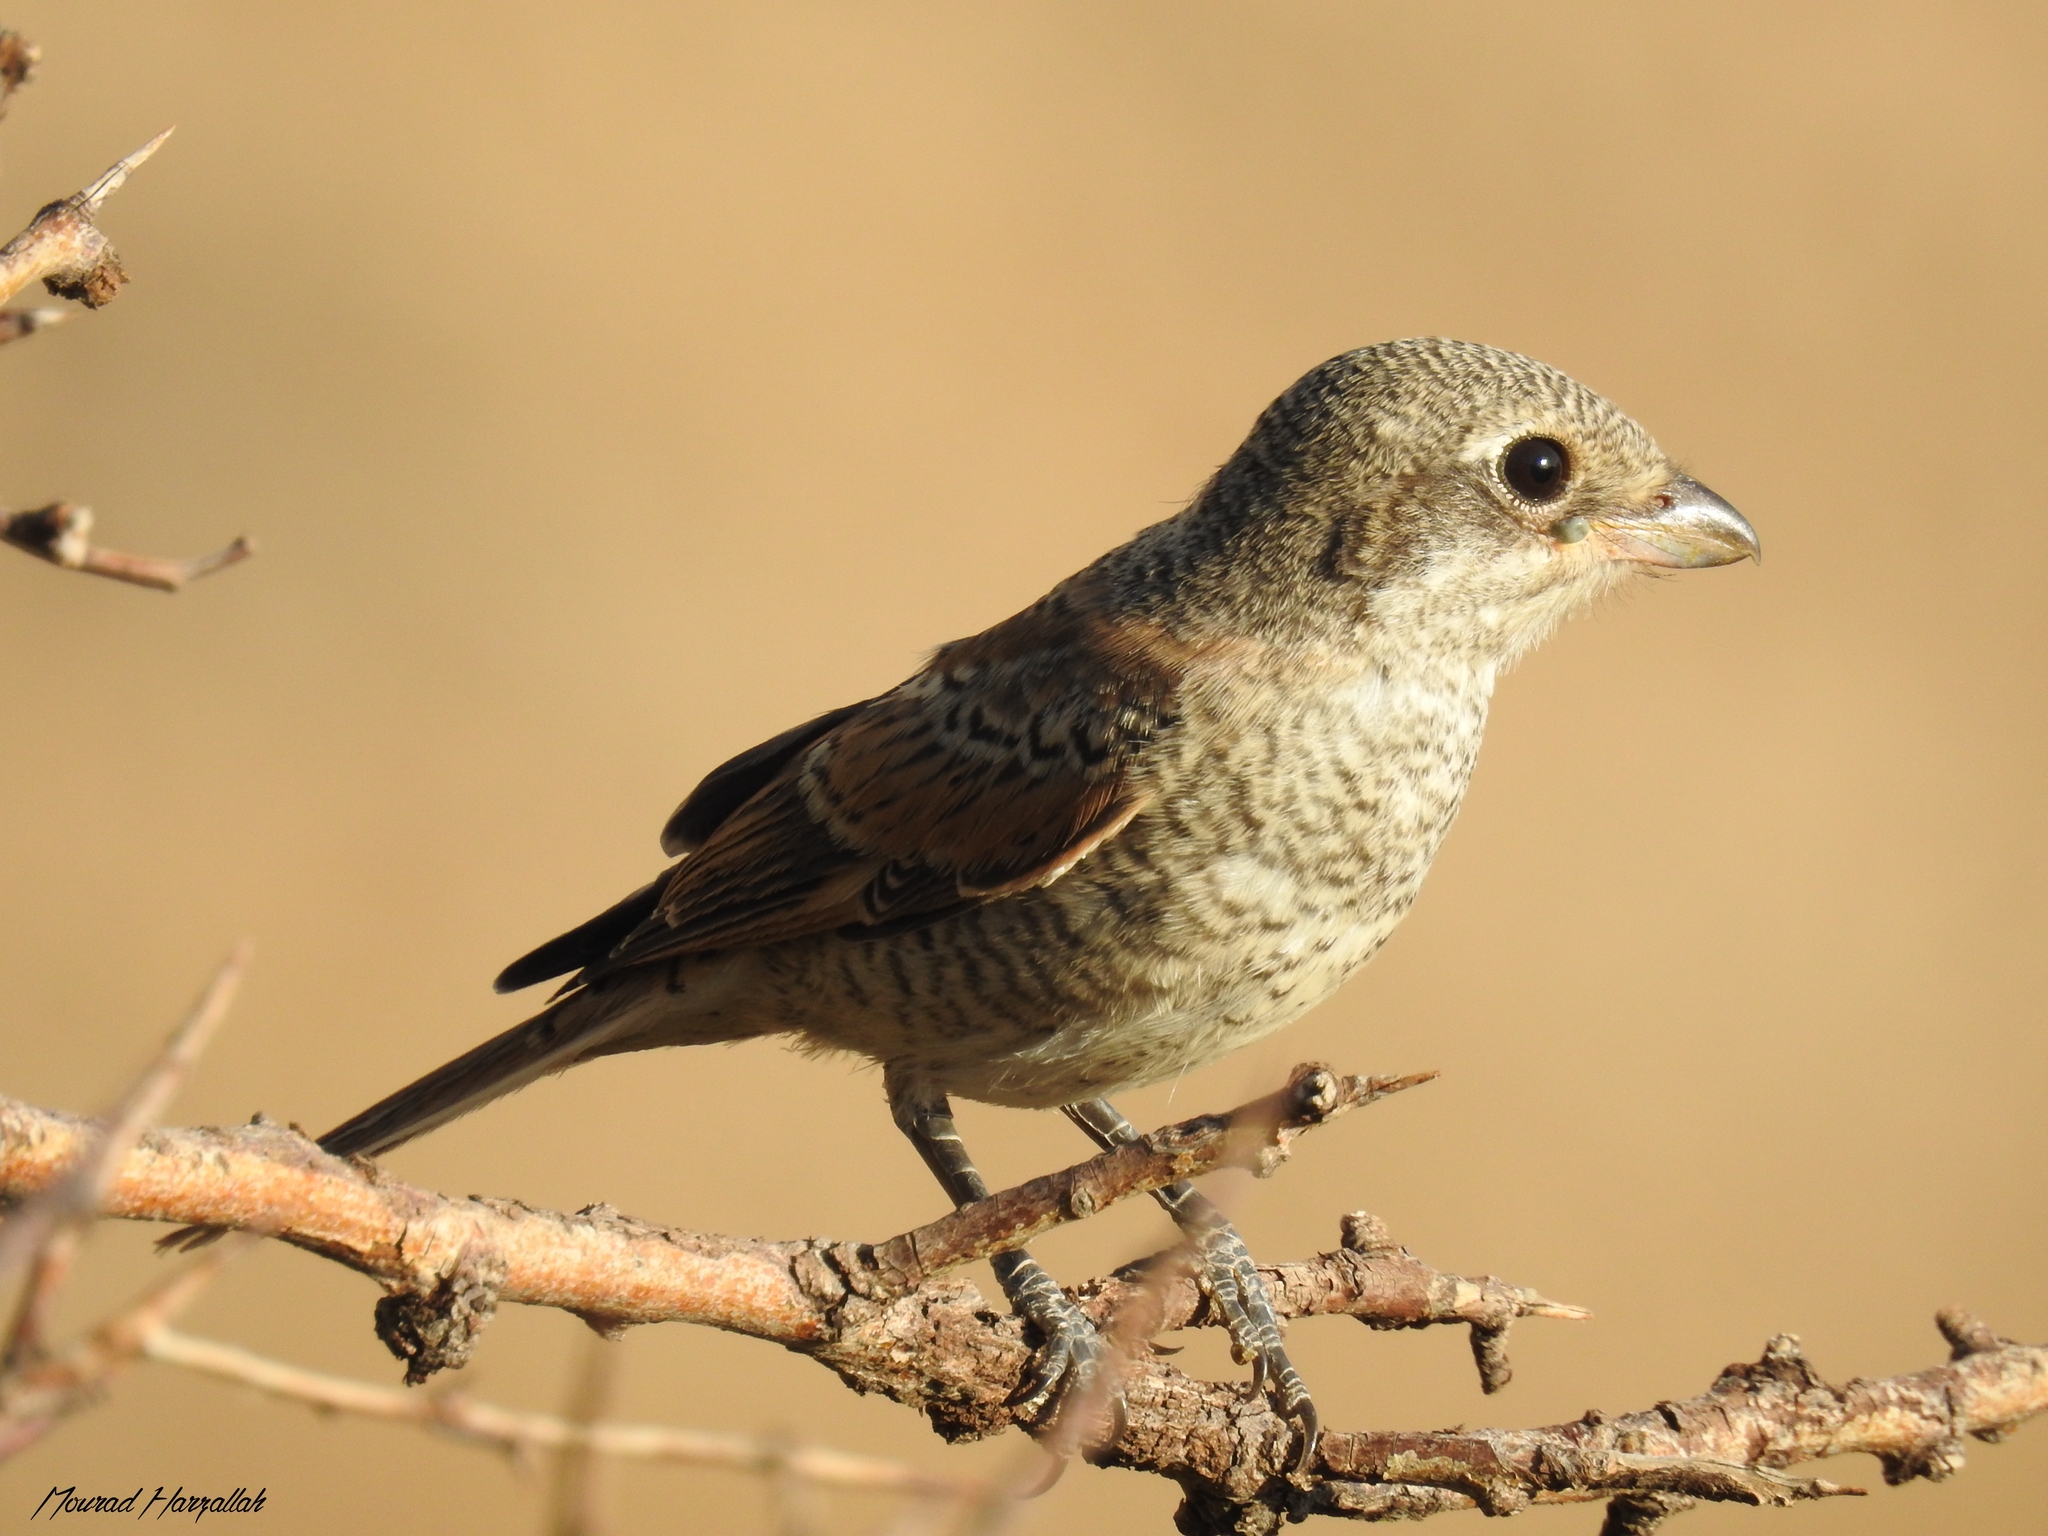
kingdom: Animalia
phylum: Chordata
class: Aves
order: Passeriformes
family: Laniidae
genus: Lanius
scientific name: Lanius senator
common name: Woodchat shrike
